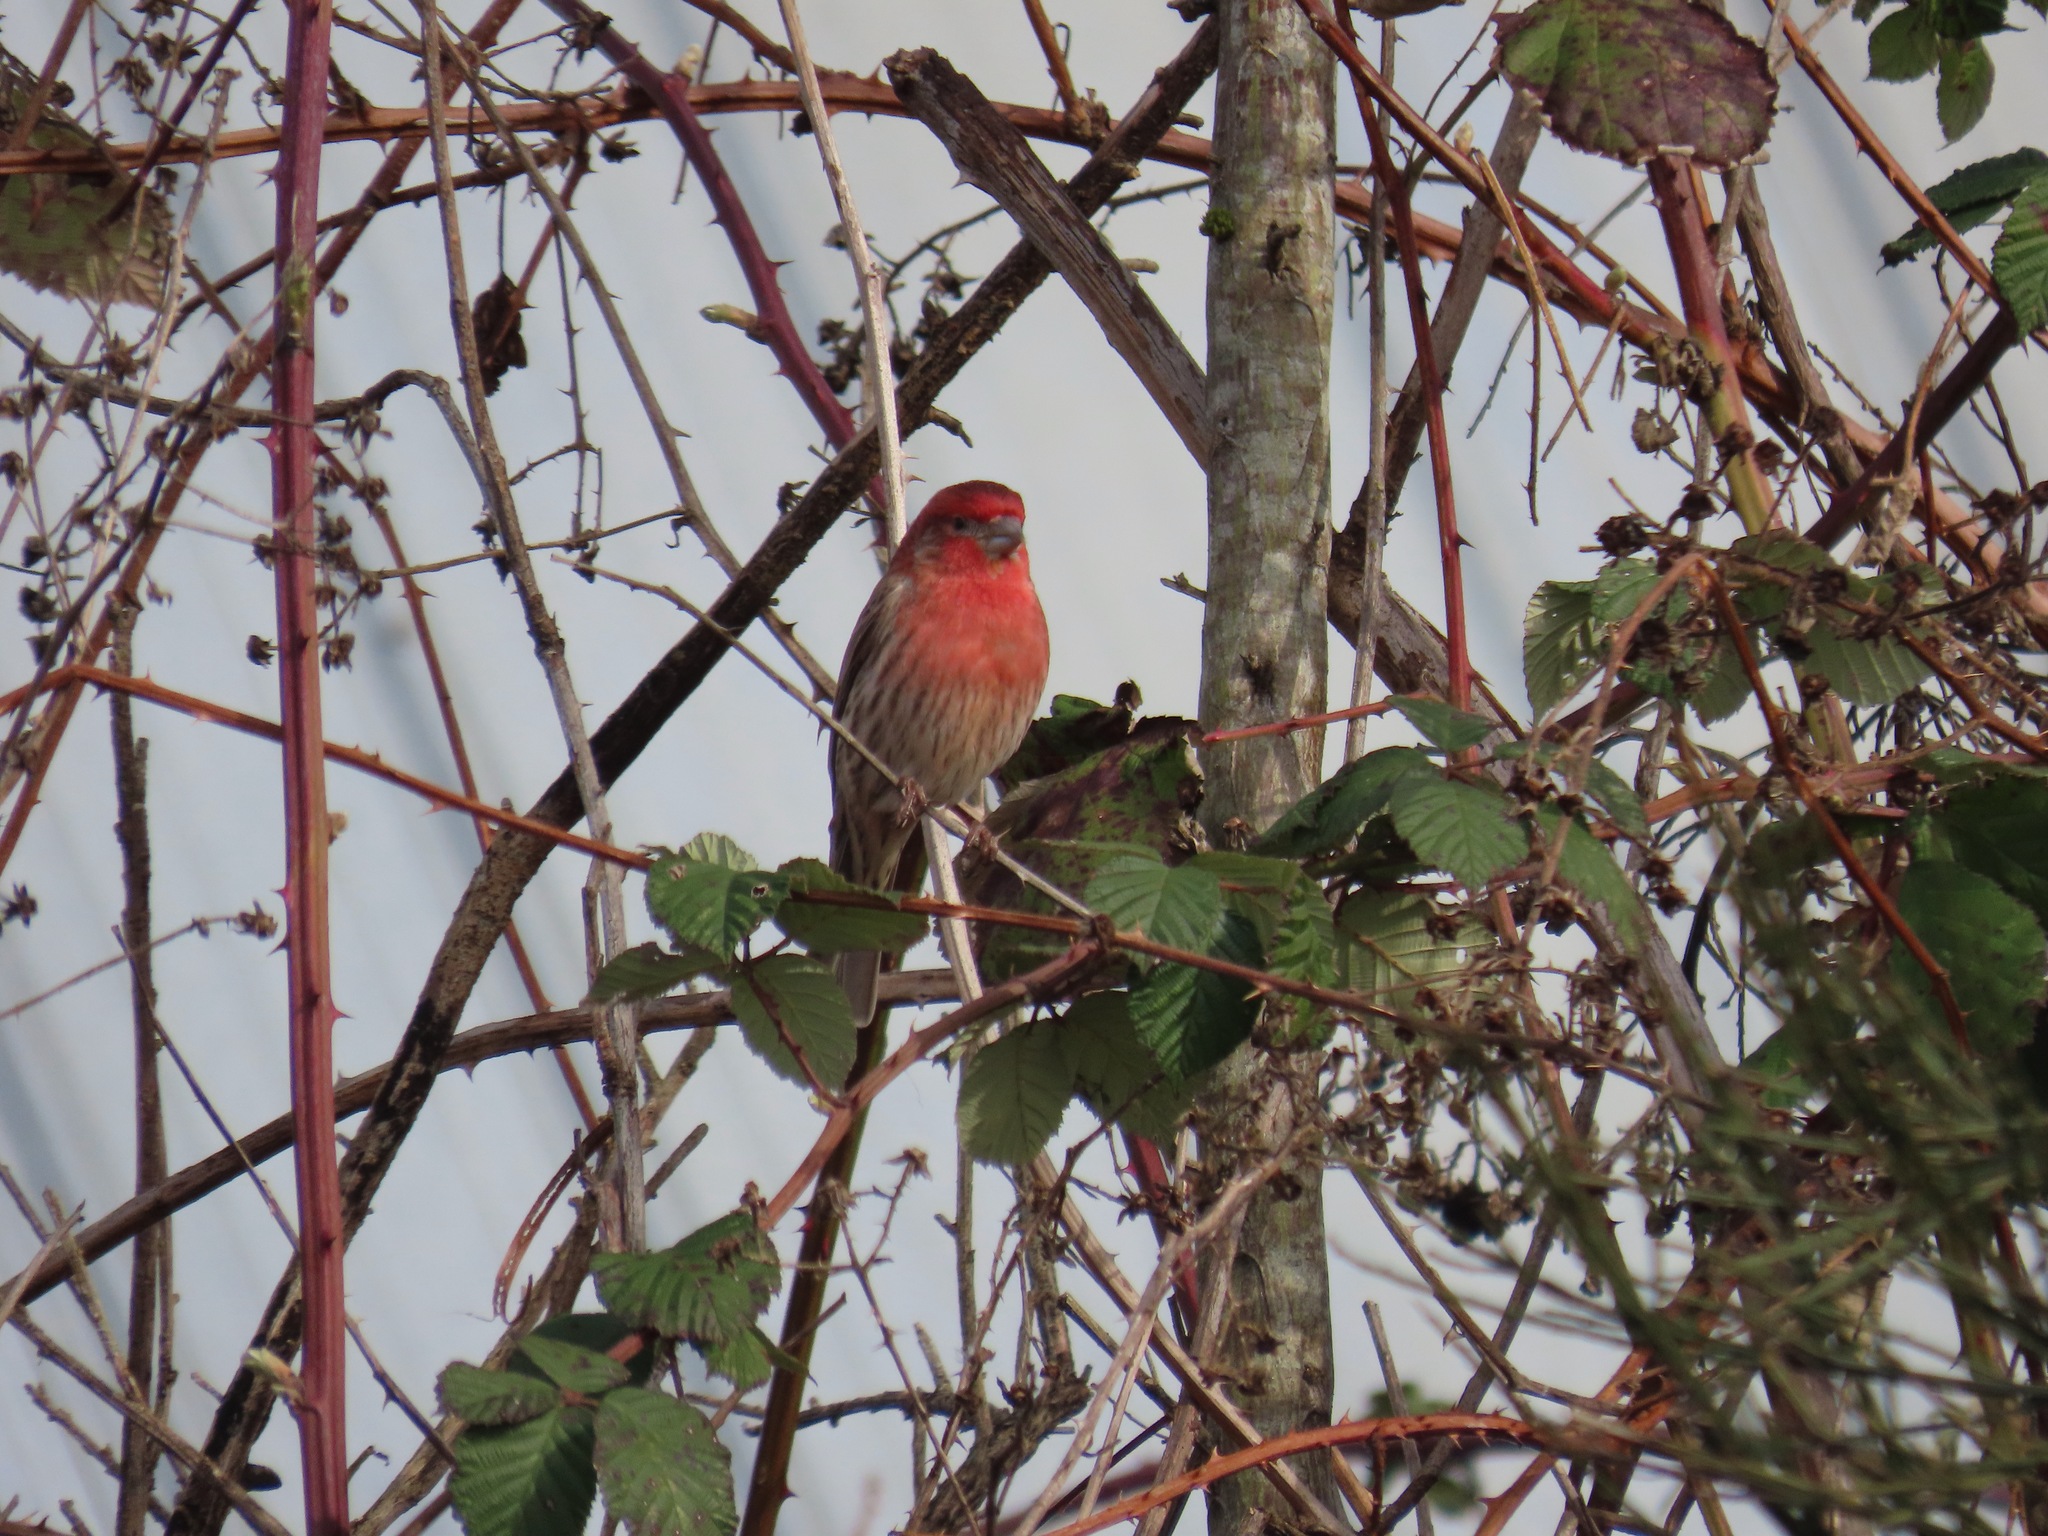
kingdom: Animalia
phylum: Chordata
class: Aves
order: Passeriformes
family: Fringillidae
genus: Haemorhous
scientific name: Haemorhous mexicanus
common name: House finch
